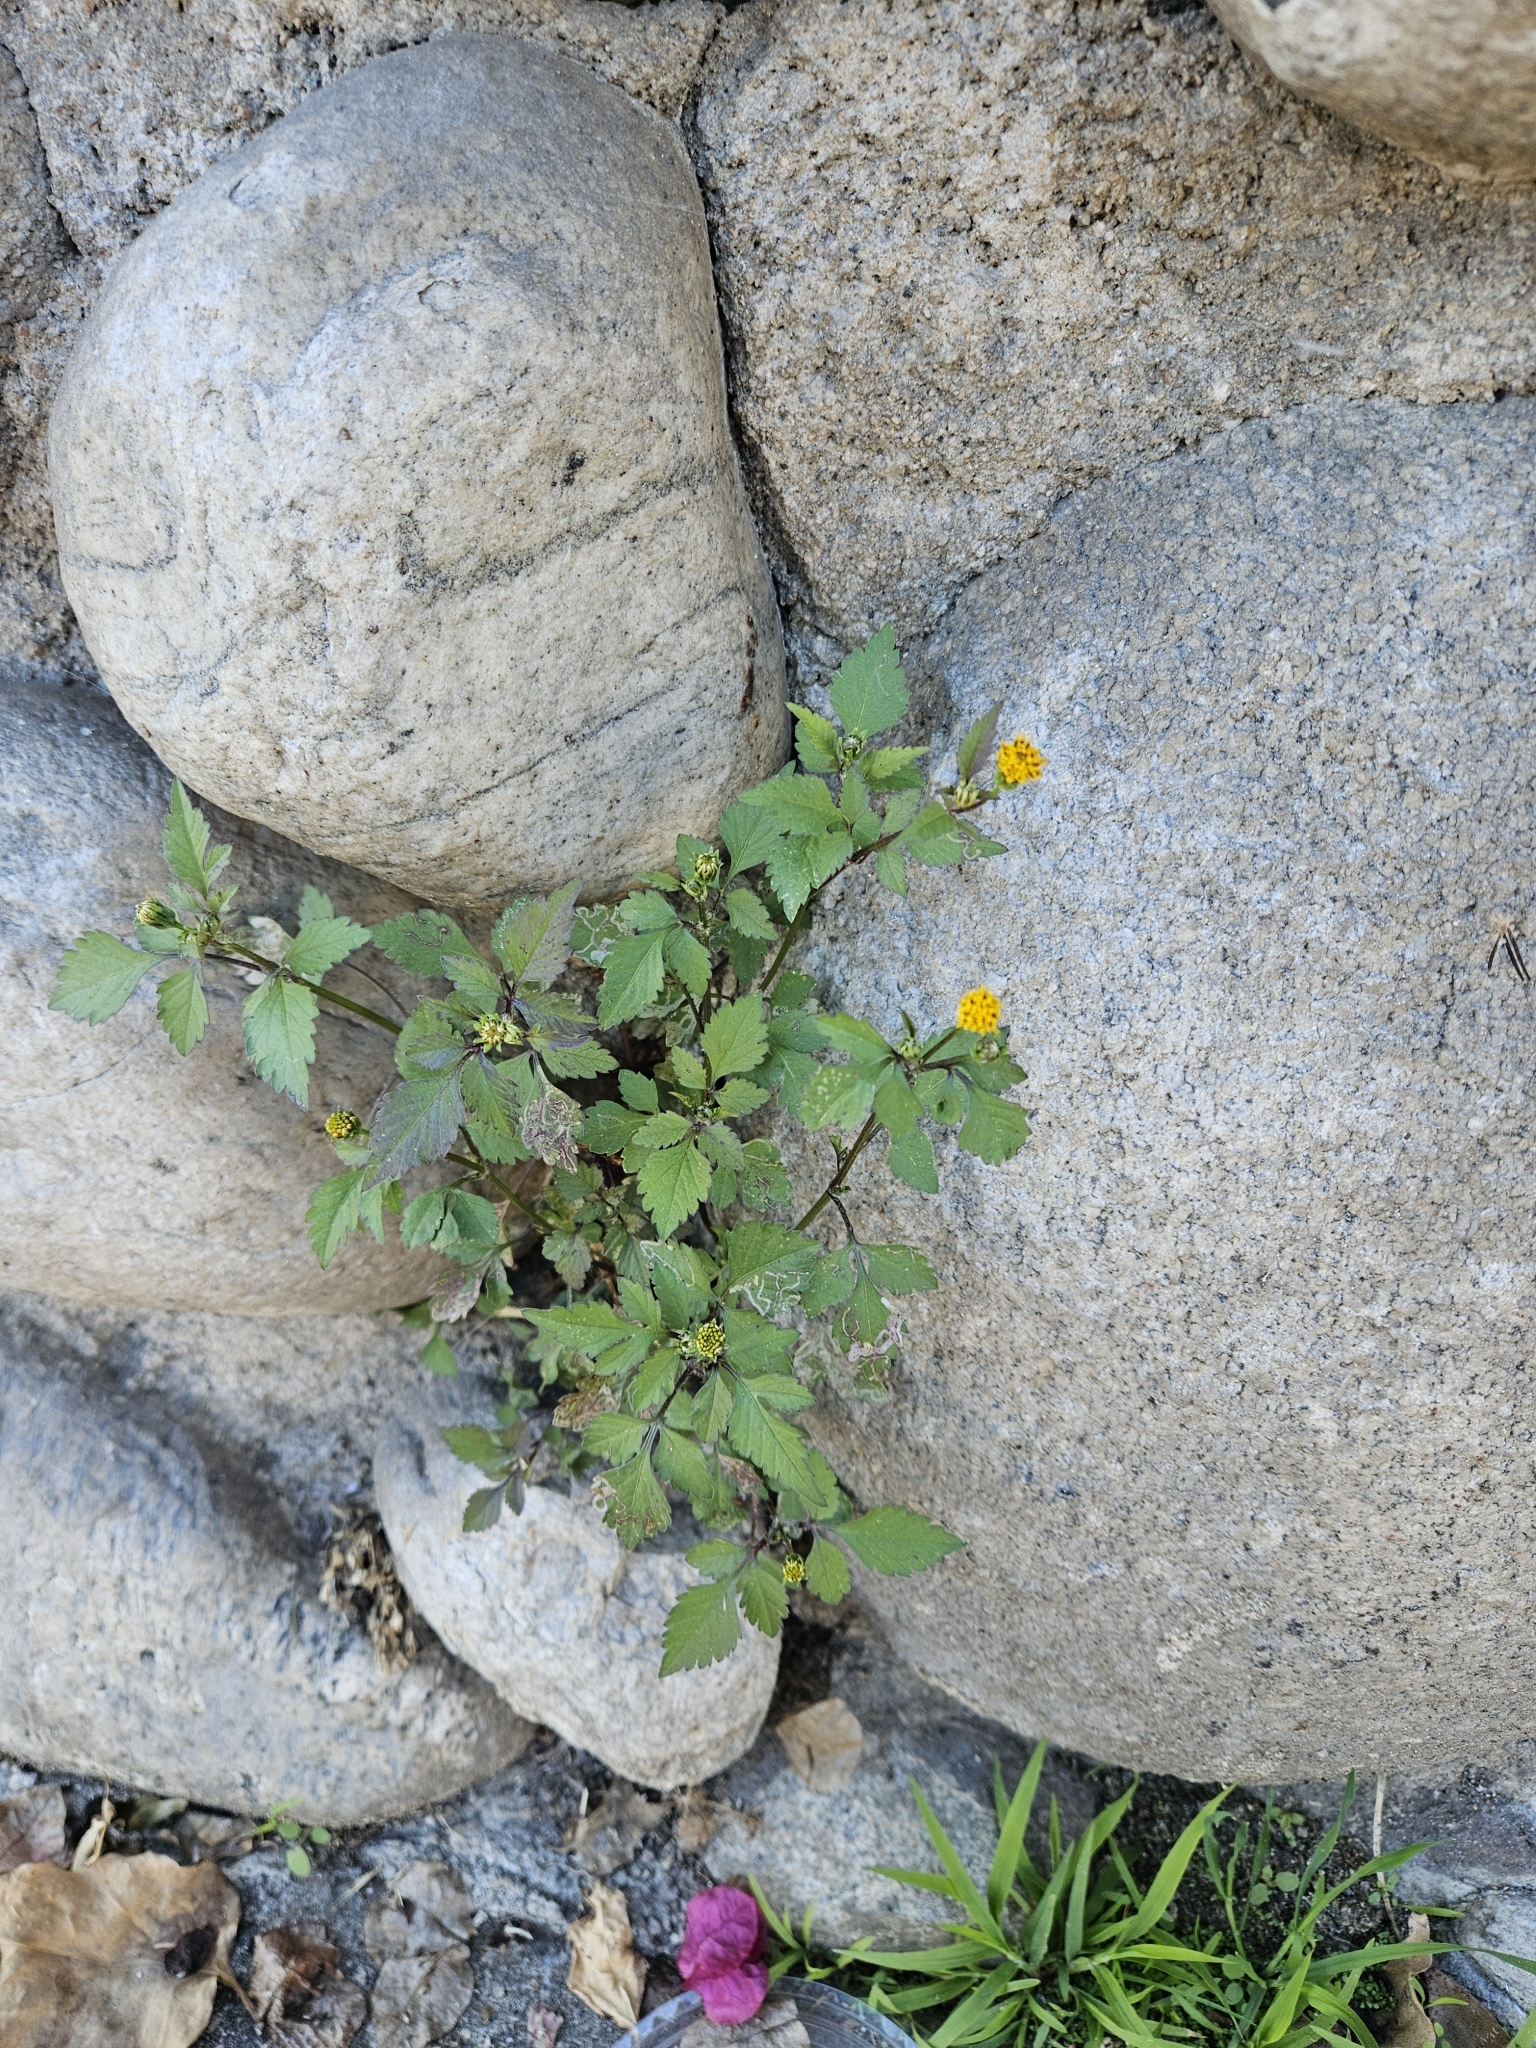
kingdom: Plantae
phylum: Tracheophyta
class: Magnoliopsida
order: Asterales
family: Asteraceae
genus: Bidens
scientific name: Bidens pilosa
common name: Black-jack
